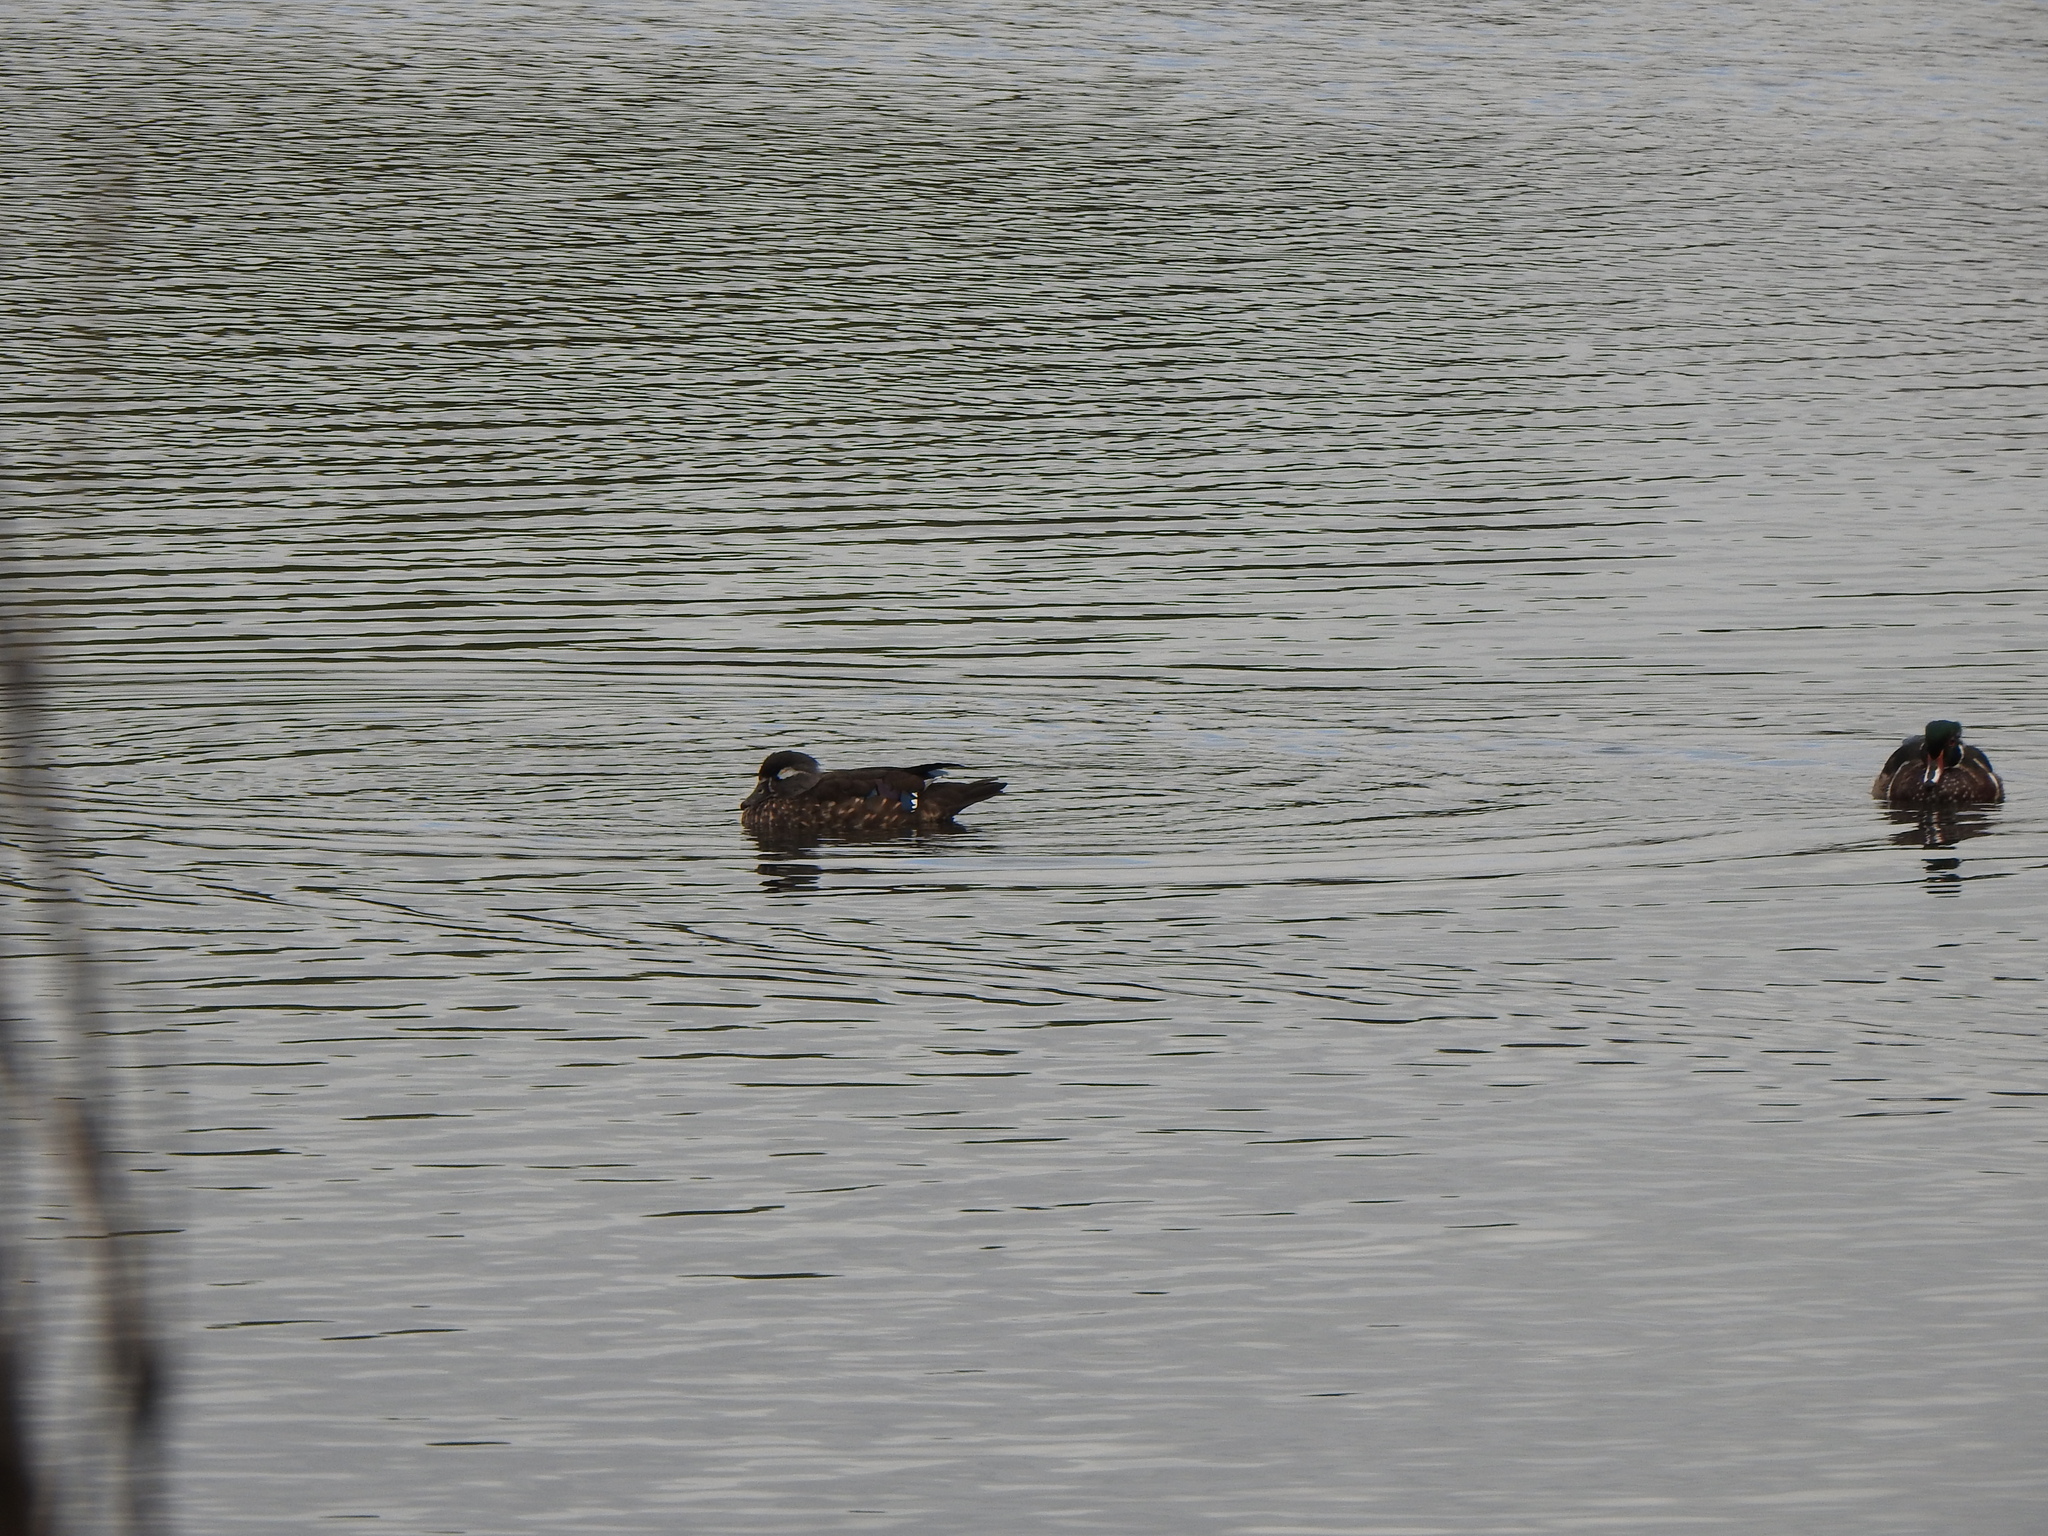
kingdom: Animalia
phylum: Chordata
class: Aves
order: Anseriformes
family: Anatidae
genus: Aix
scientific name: Aix sponsa
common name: Wood duck
